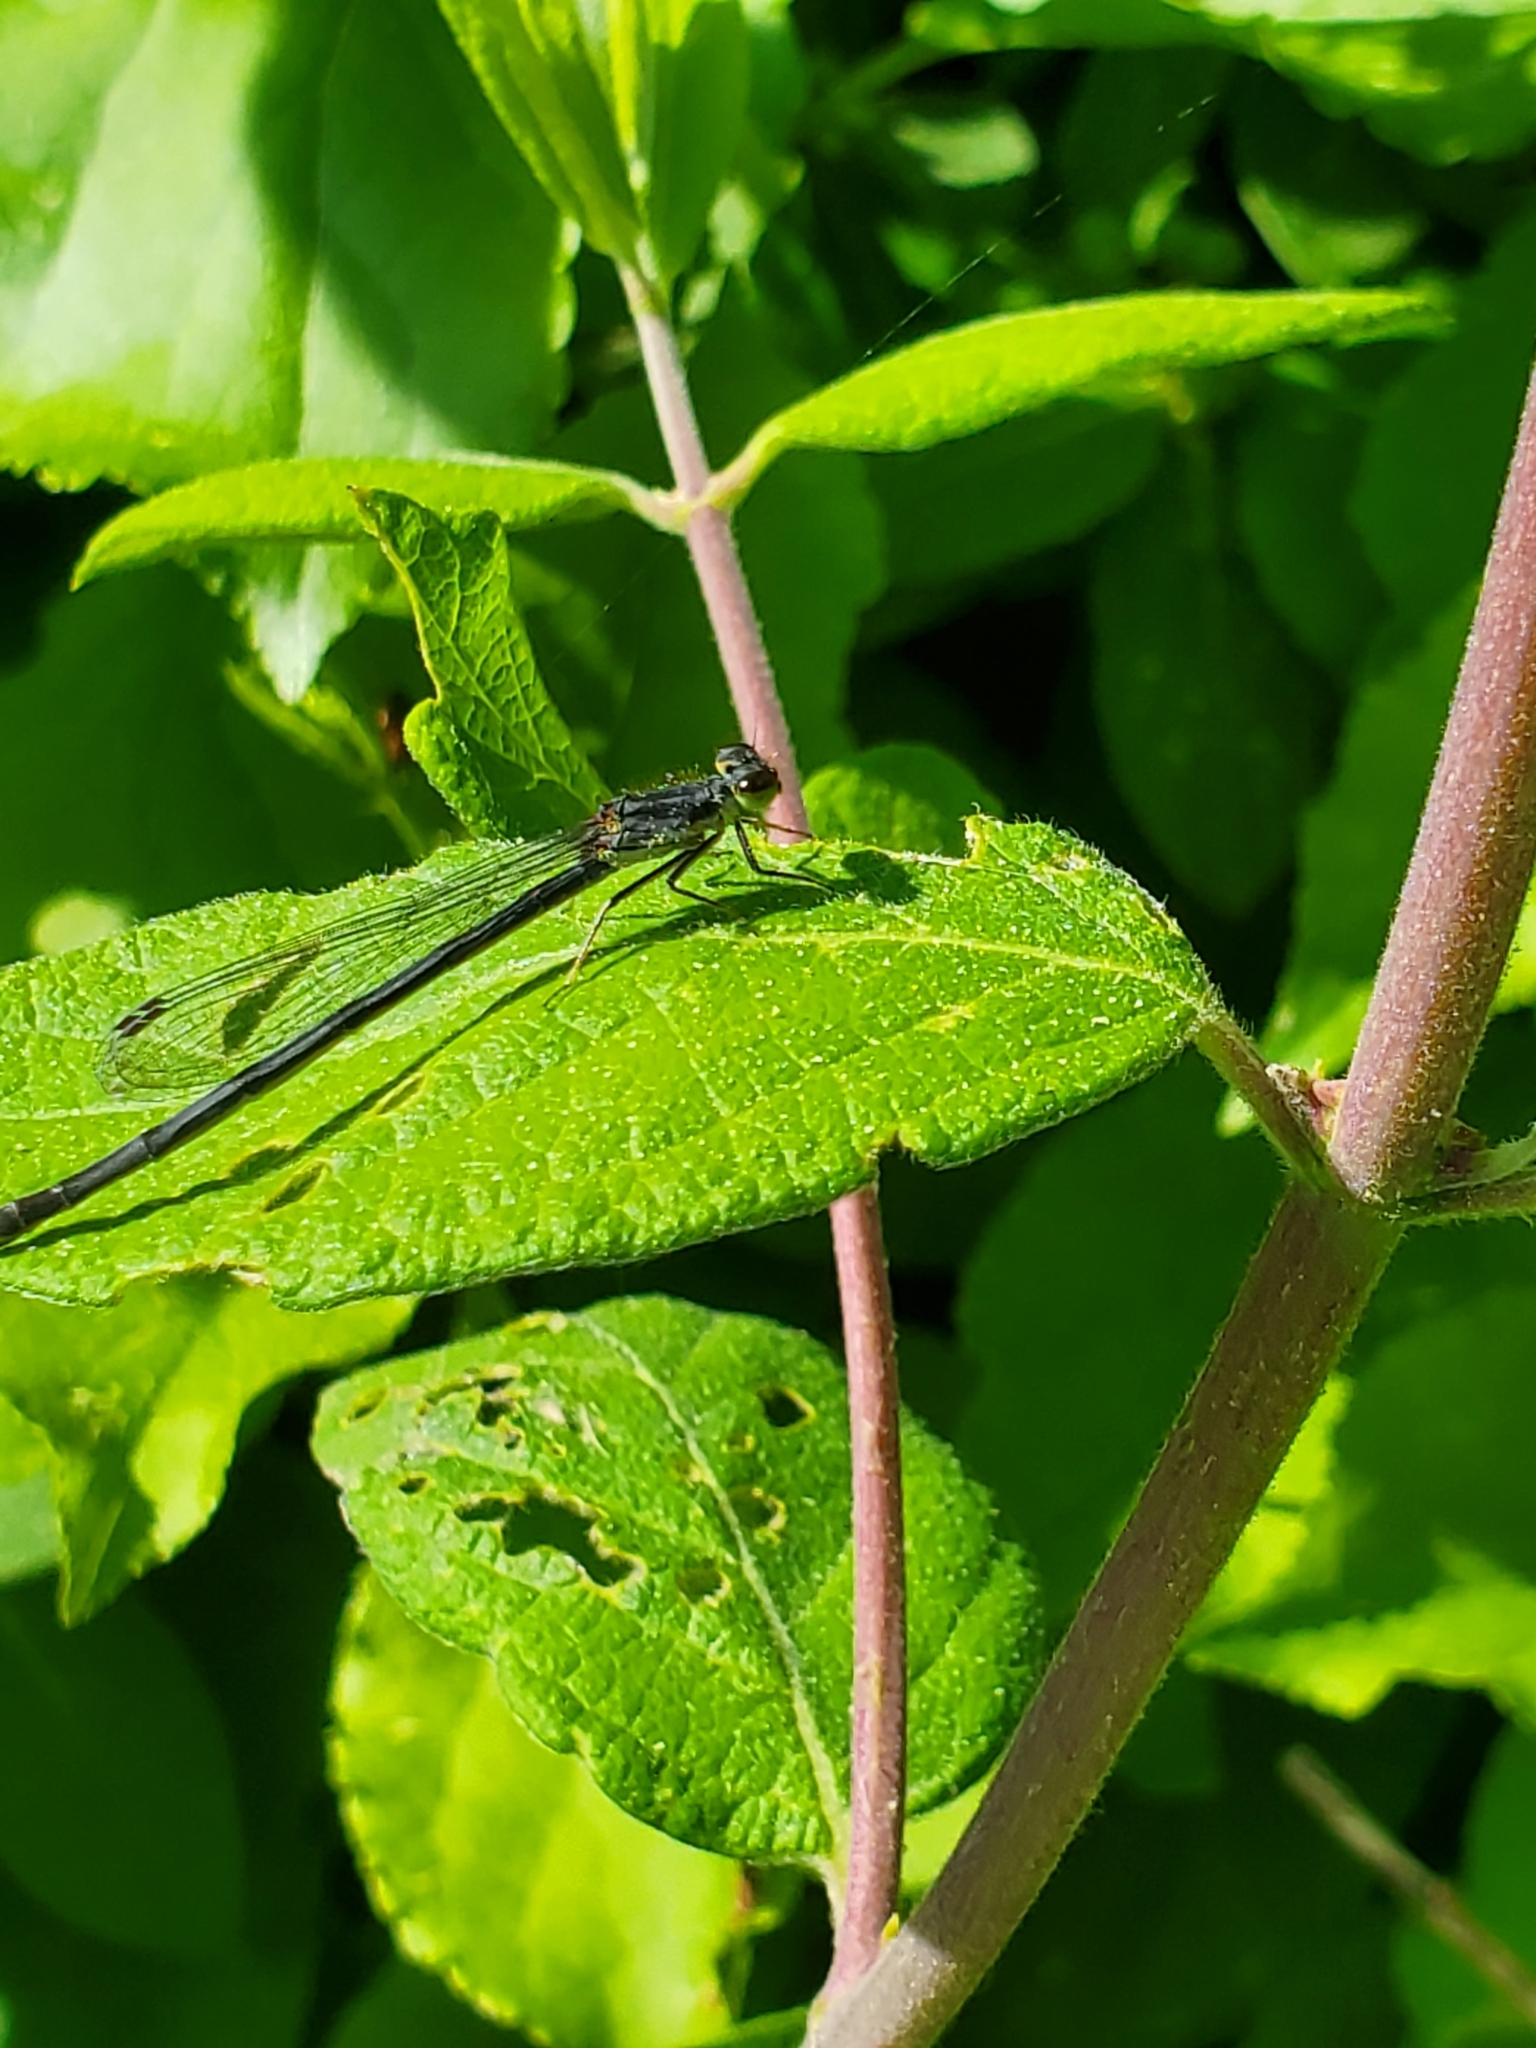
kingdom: Animalia
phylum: Arthropoda
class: Insecta
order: Odonata
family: Coenagrionidae
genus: Ischnura
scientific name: Ischnura verticalis
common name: Eastern forktail
